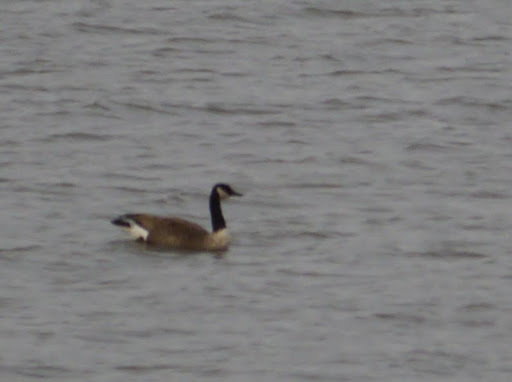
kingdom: Animalia
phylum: Chordata
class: Aves
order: Anseriformes
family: Anatidae
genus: Branta
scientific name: Branta canadensis
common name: Canada goose
